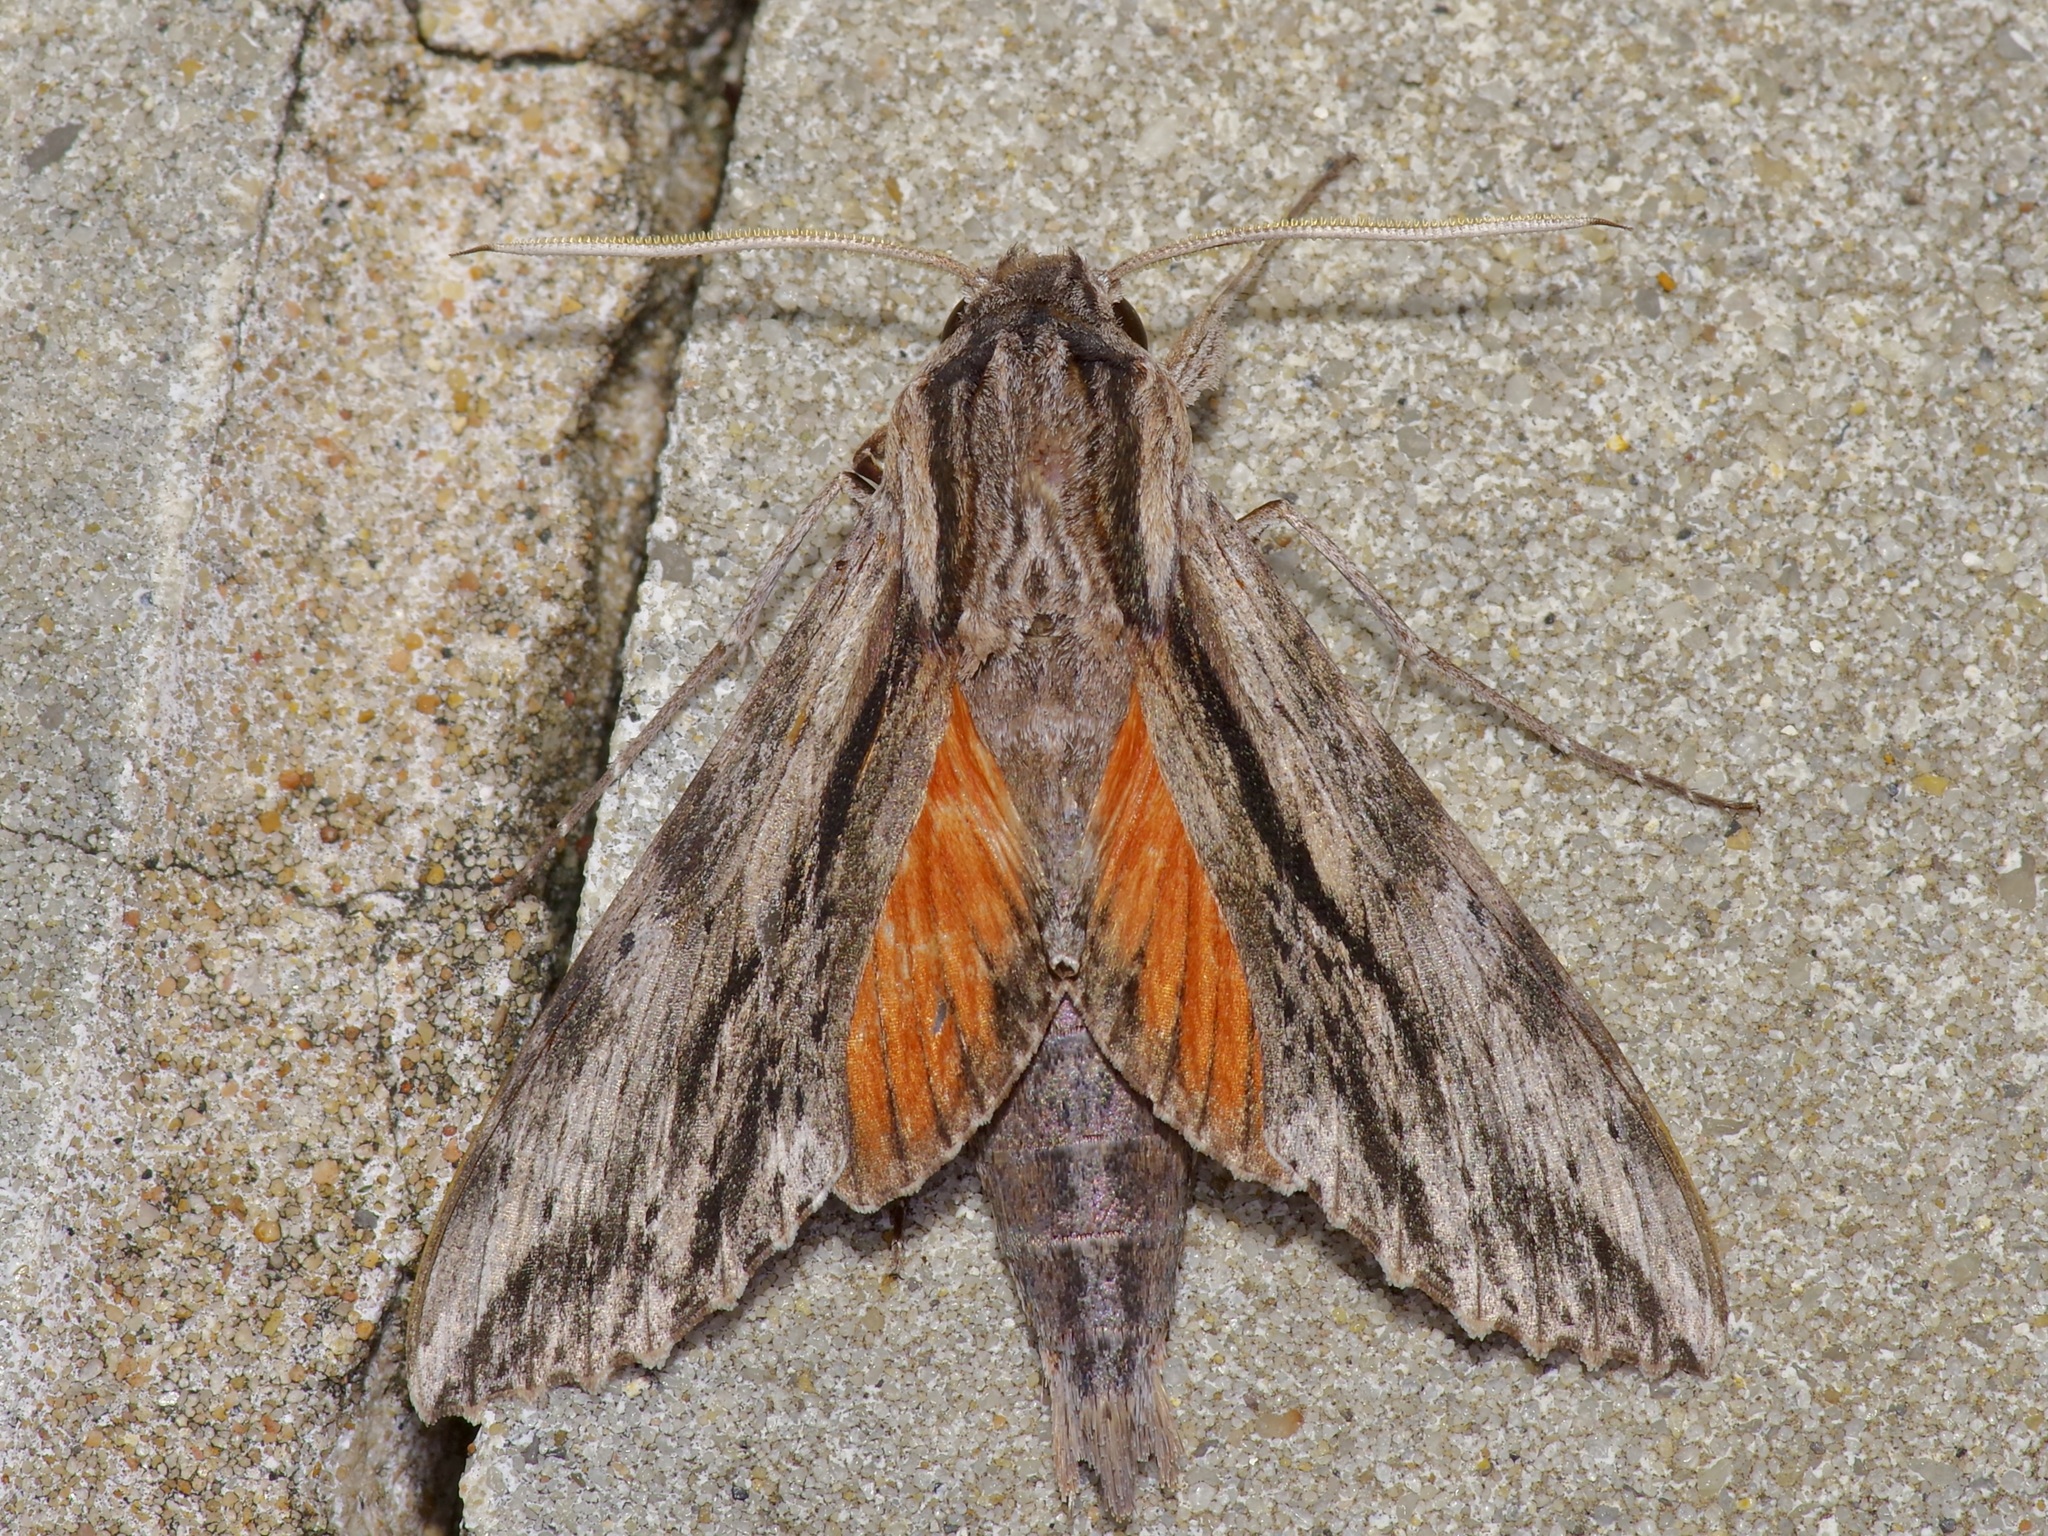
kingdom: Animalia
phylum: Arthropoda
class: Insecta
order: Lepidoptera
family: Sphingidae
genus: Erinnyis
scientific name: Erinnyis obscura
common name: Obscure sphinx
